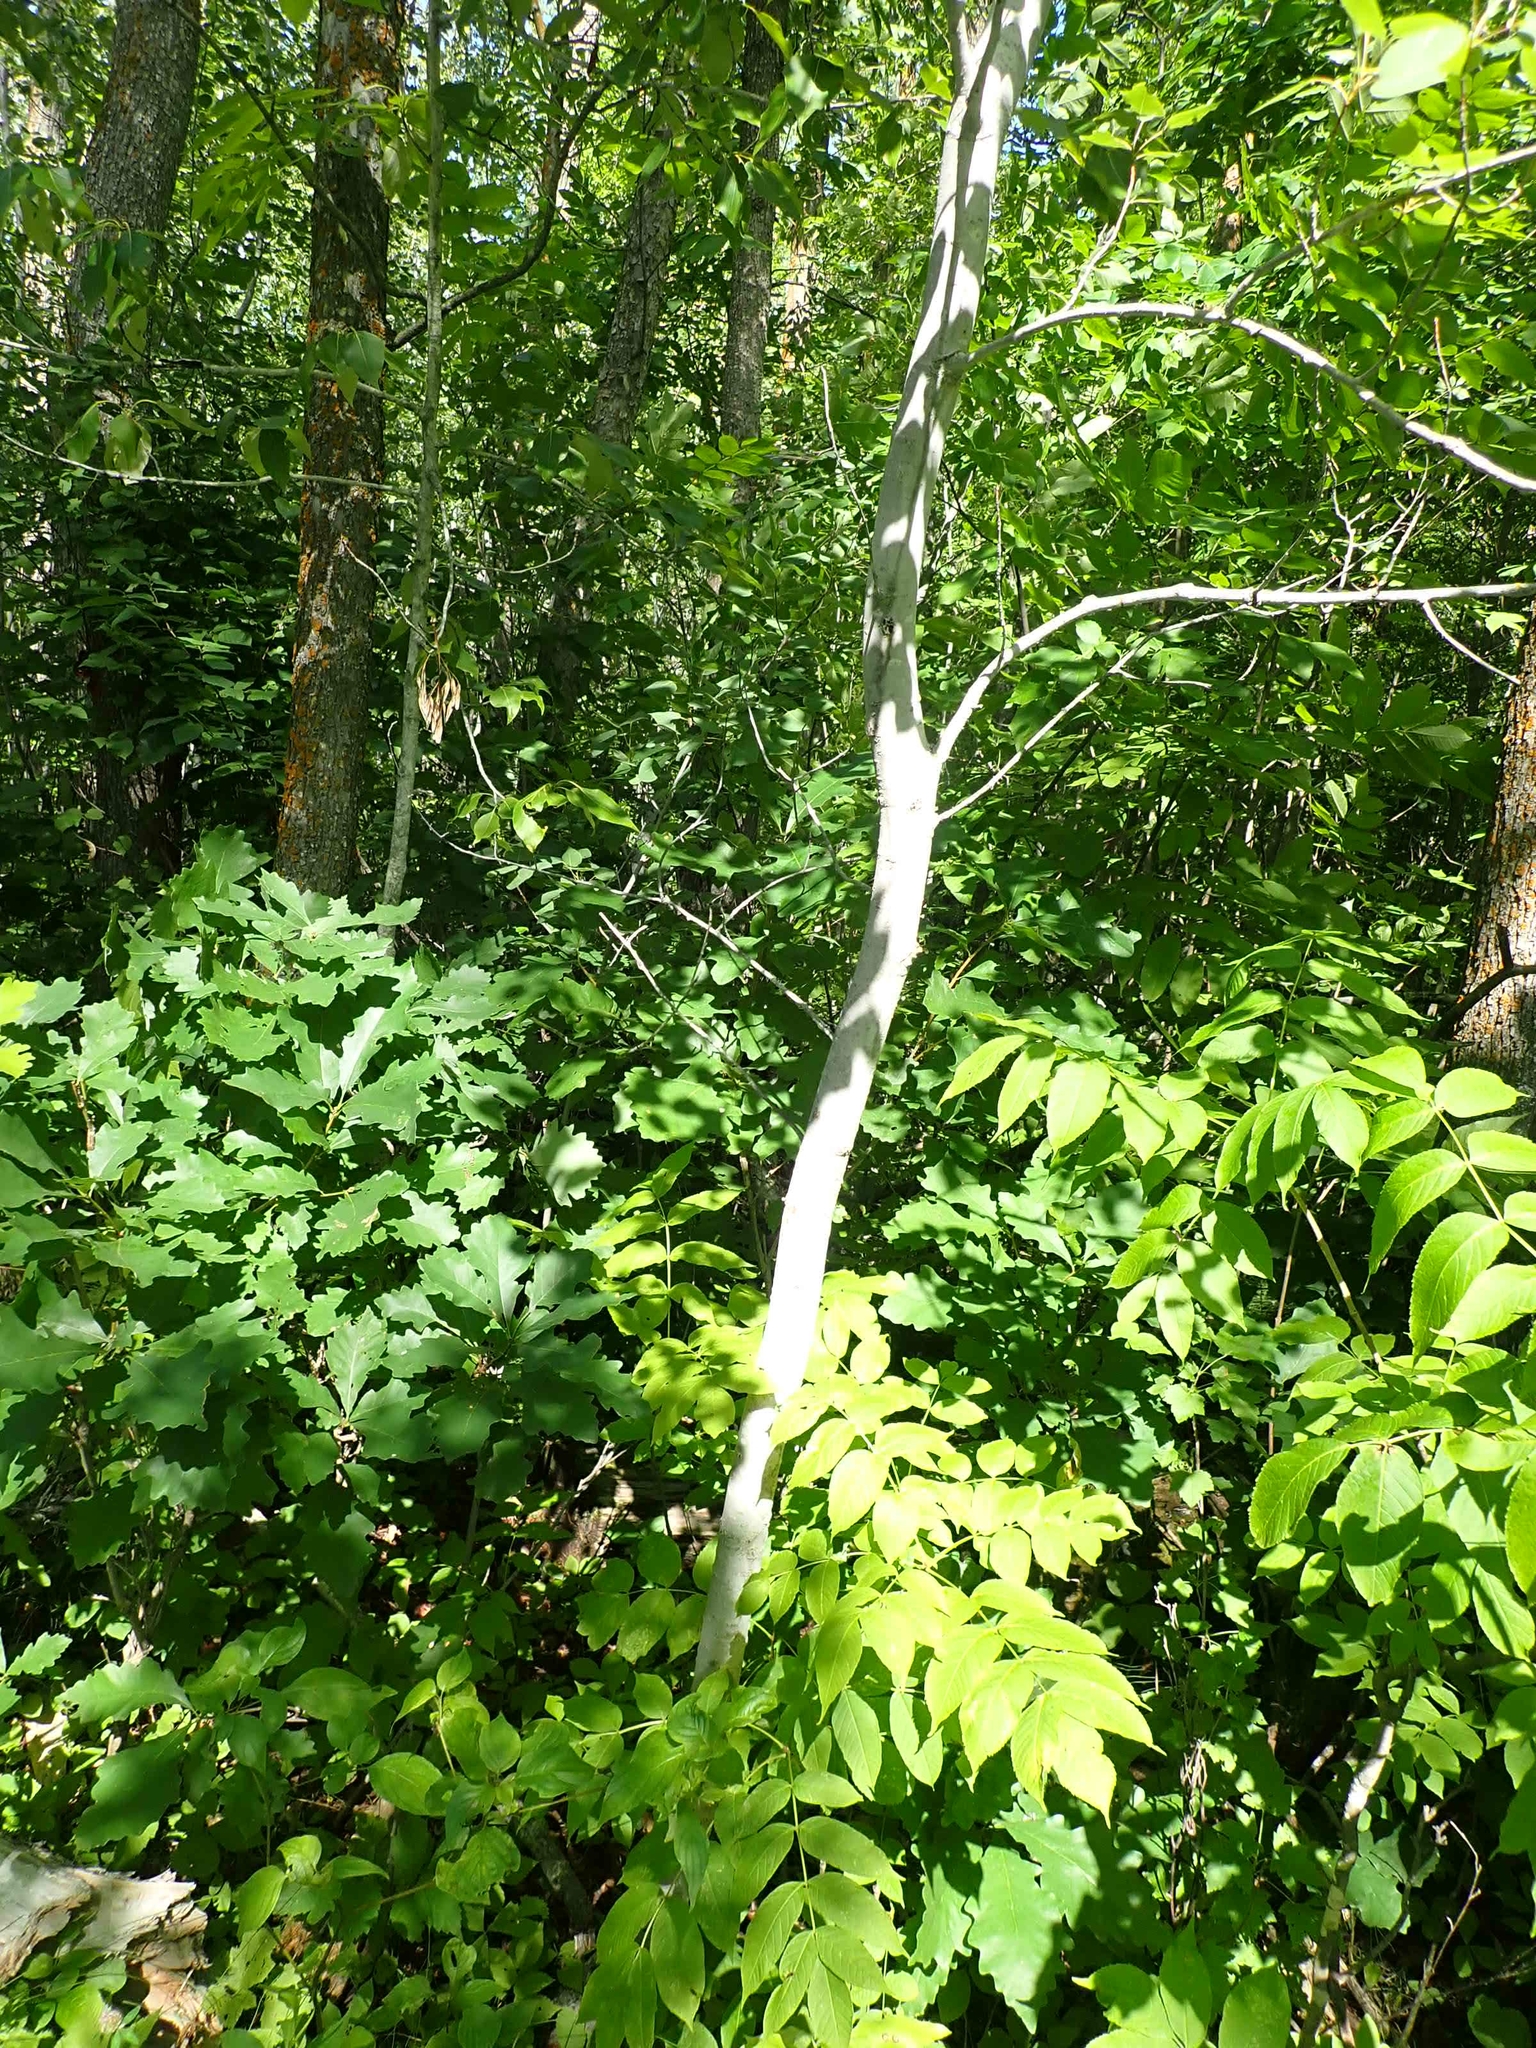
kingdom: Plantae
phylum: Tracheophyta
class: Magnoliopsida
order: Malpighiales
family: Salicaceae
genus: Populus
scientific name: Populus tremuloides
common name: Quaking aspen
